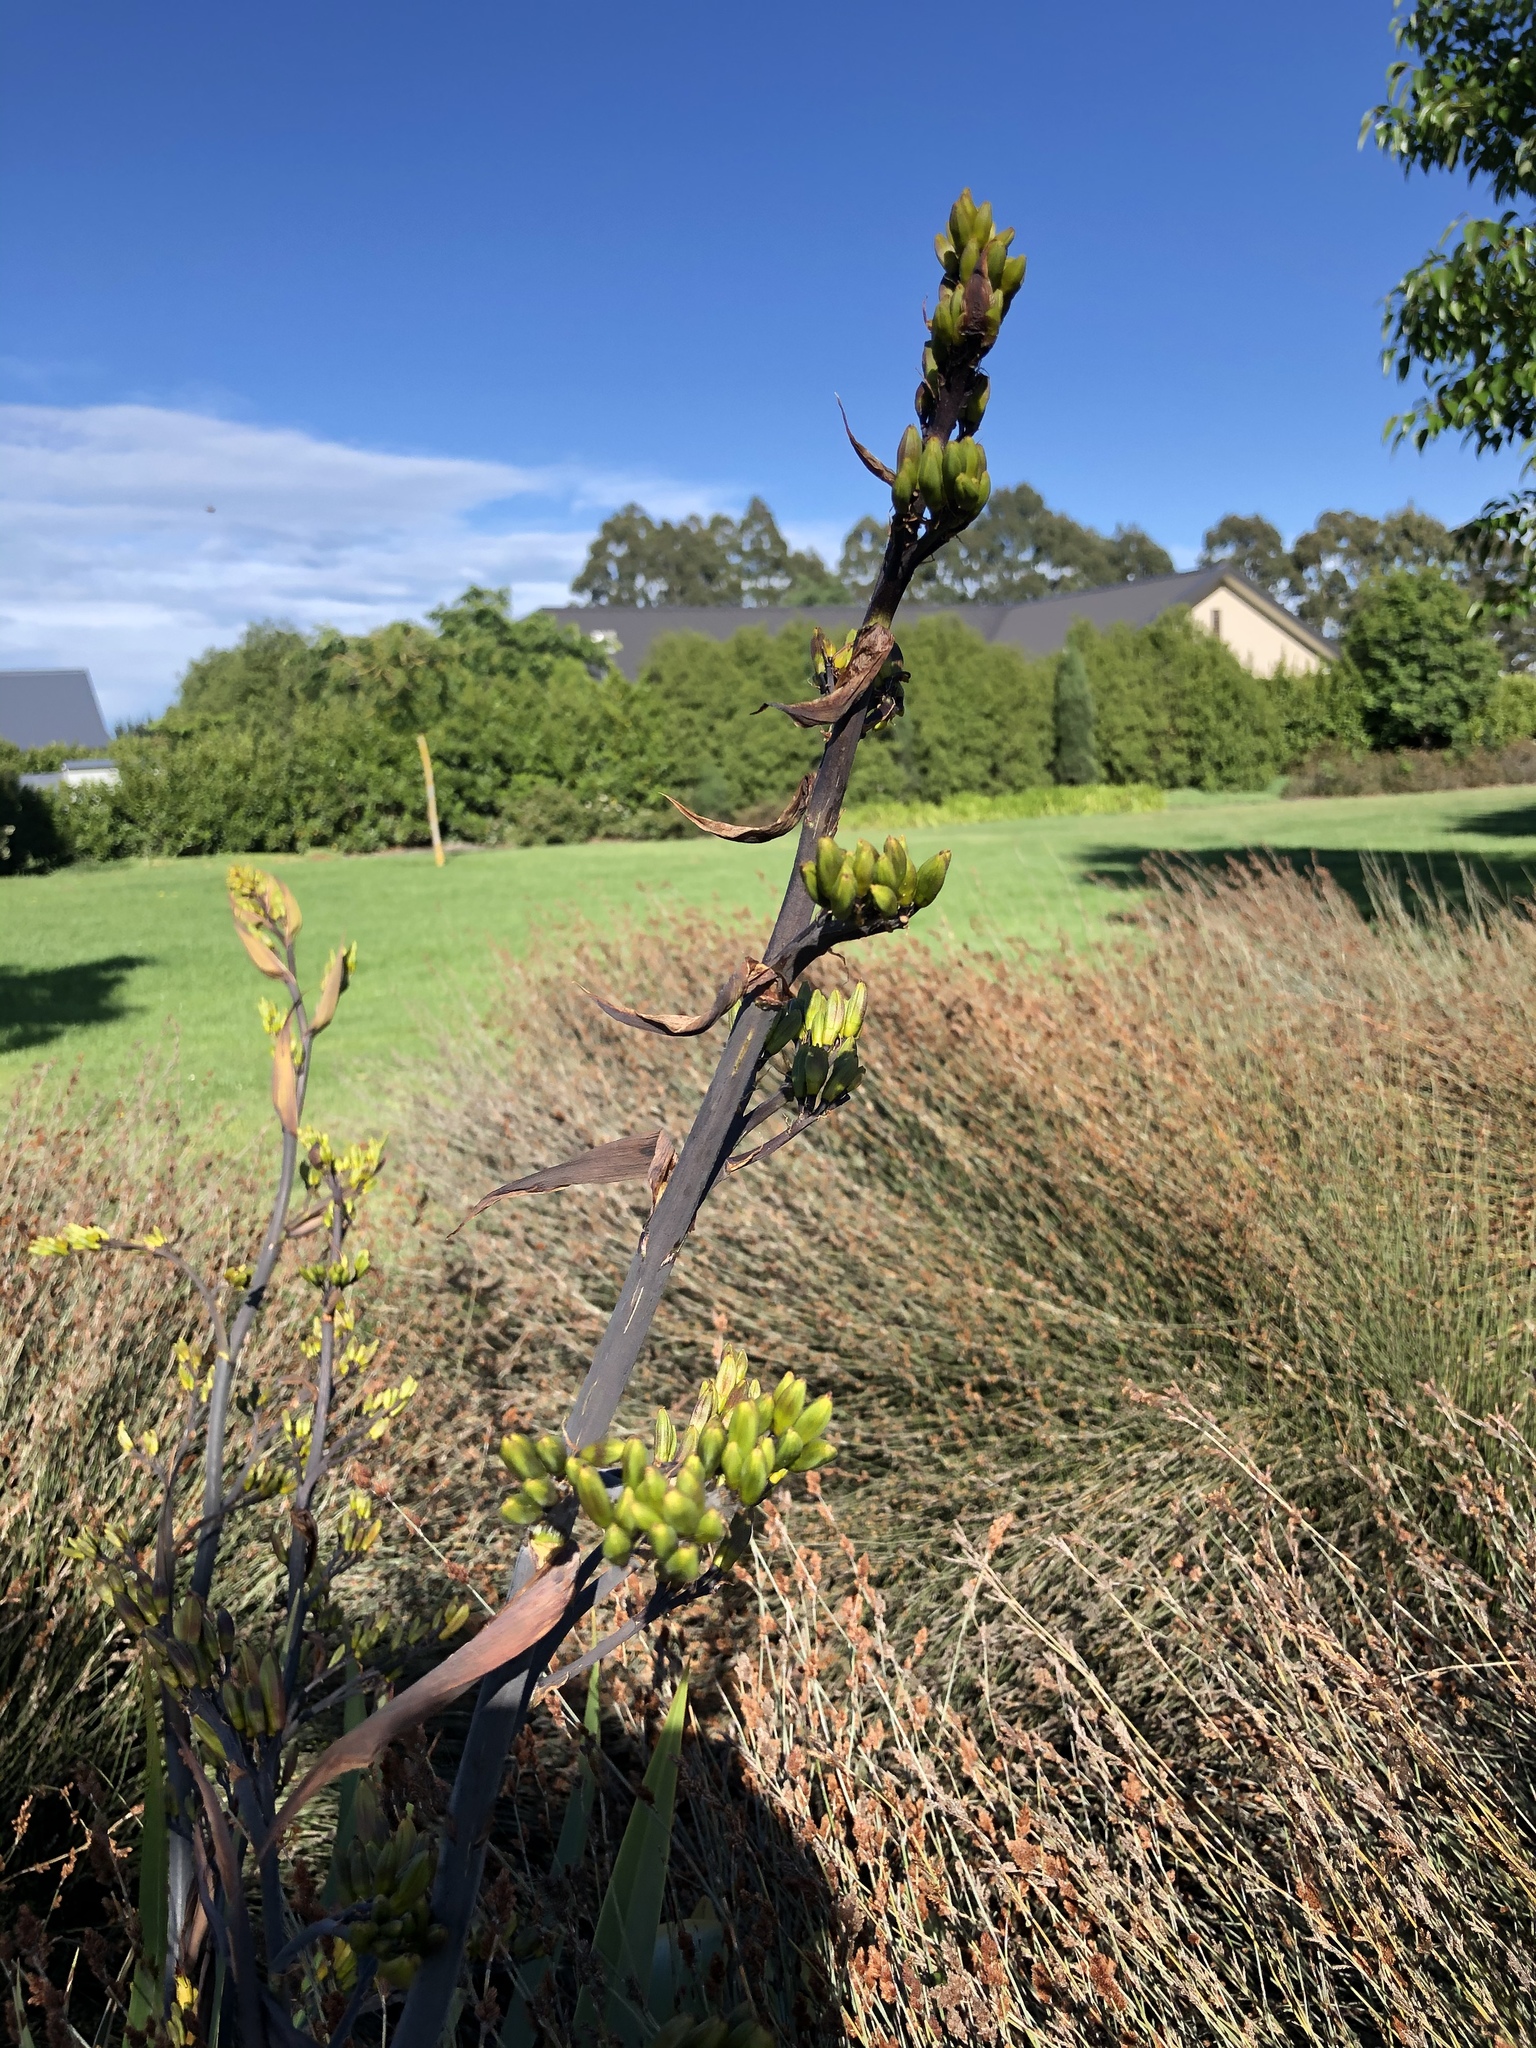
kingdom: Plantae
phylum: Tracheophyta
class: Liliopsida
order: Asparagales
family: Asphodelaceae
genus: Phormium
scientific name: Phormium colensoi
